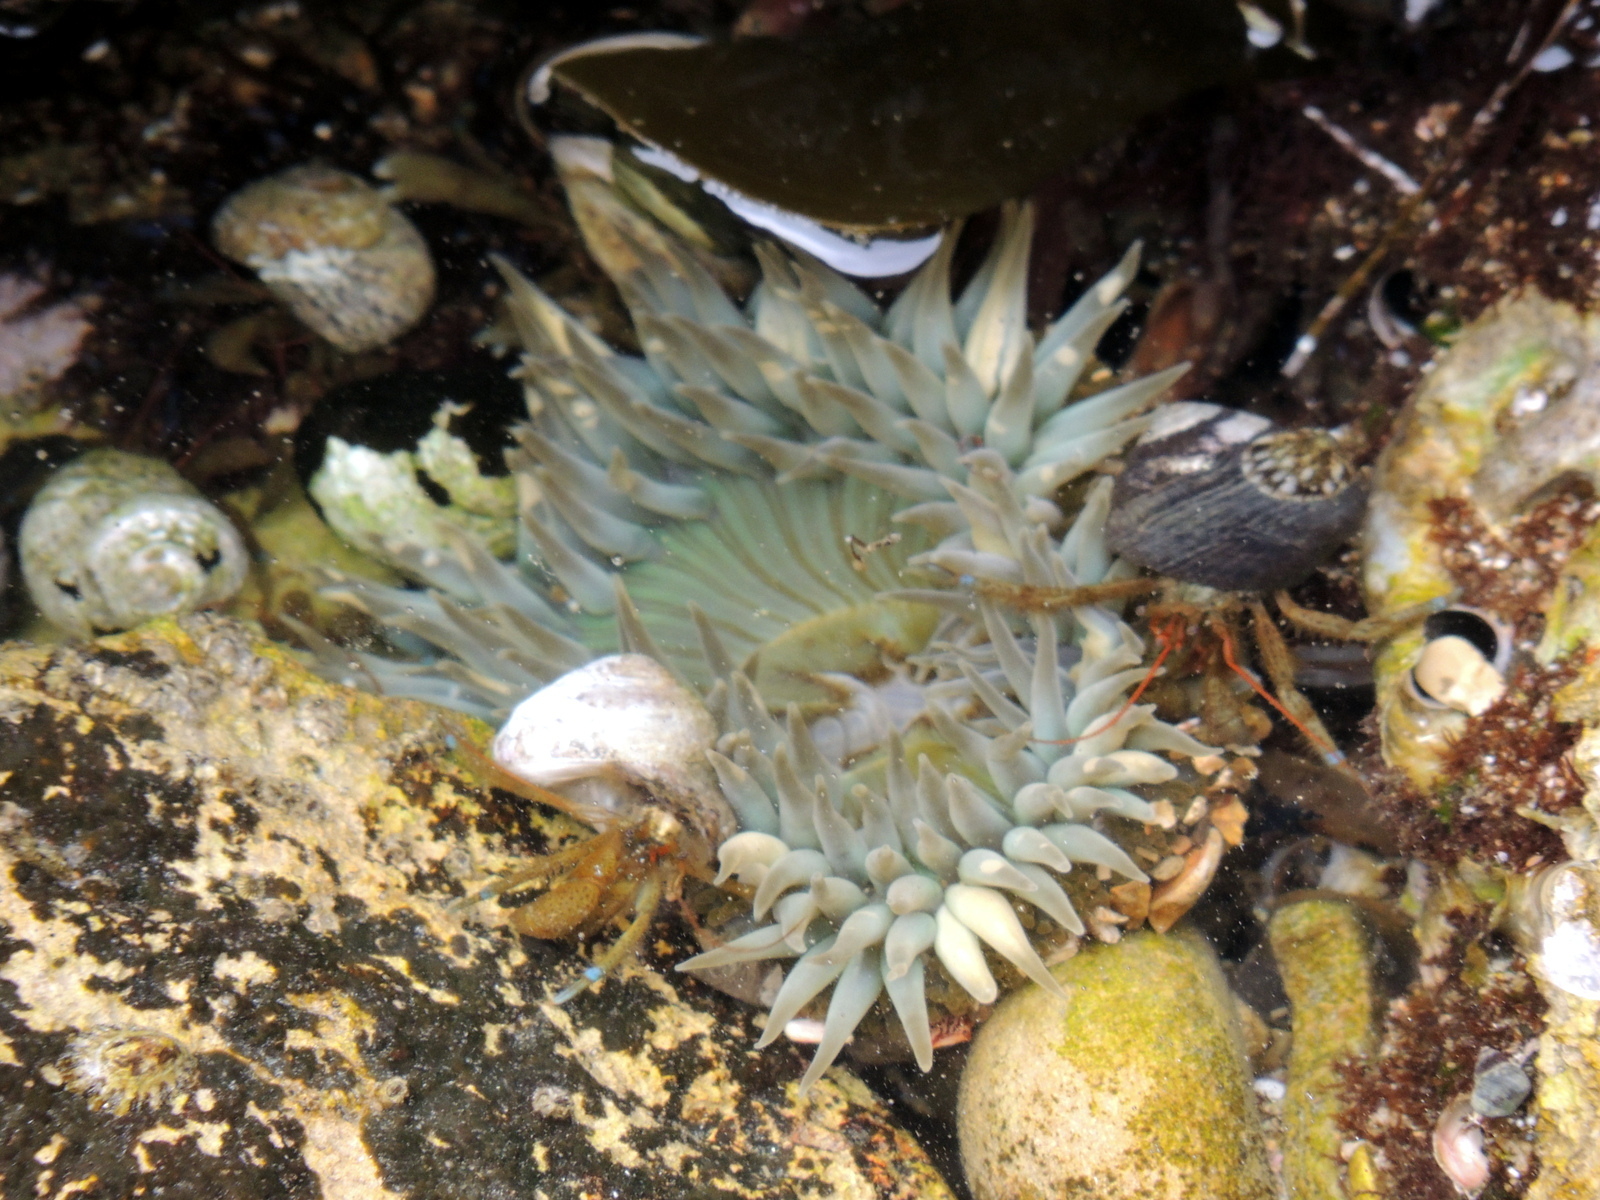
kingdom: Animalia
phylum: Arthropoda
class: Malacostraca
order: Decapoda
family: Paguridae
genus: Pagurus
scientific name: Pagurus samuelis
